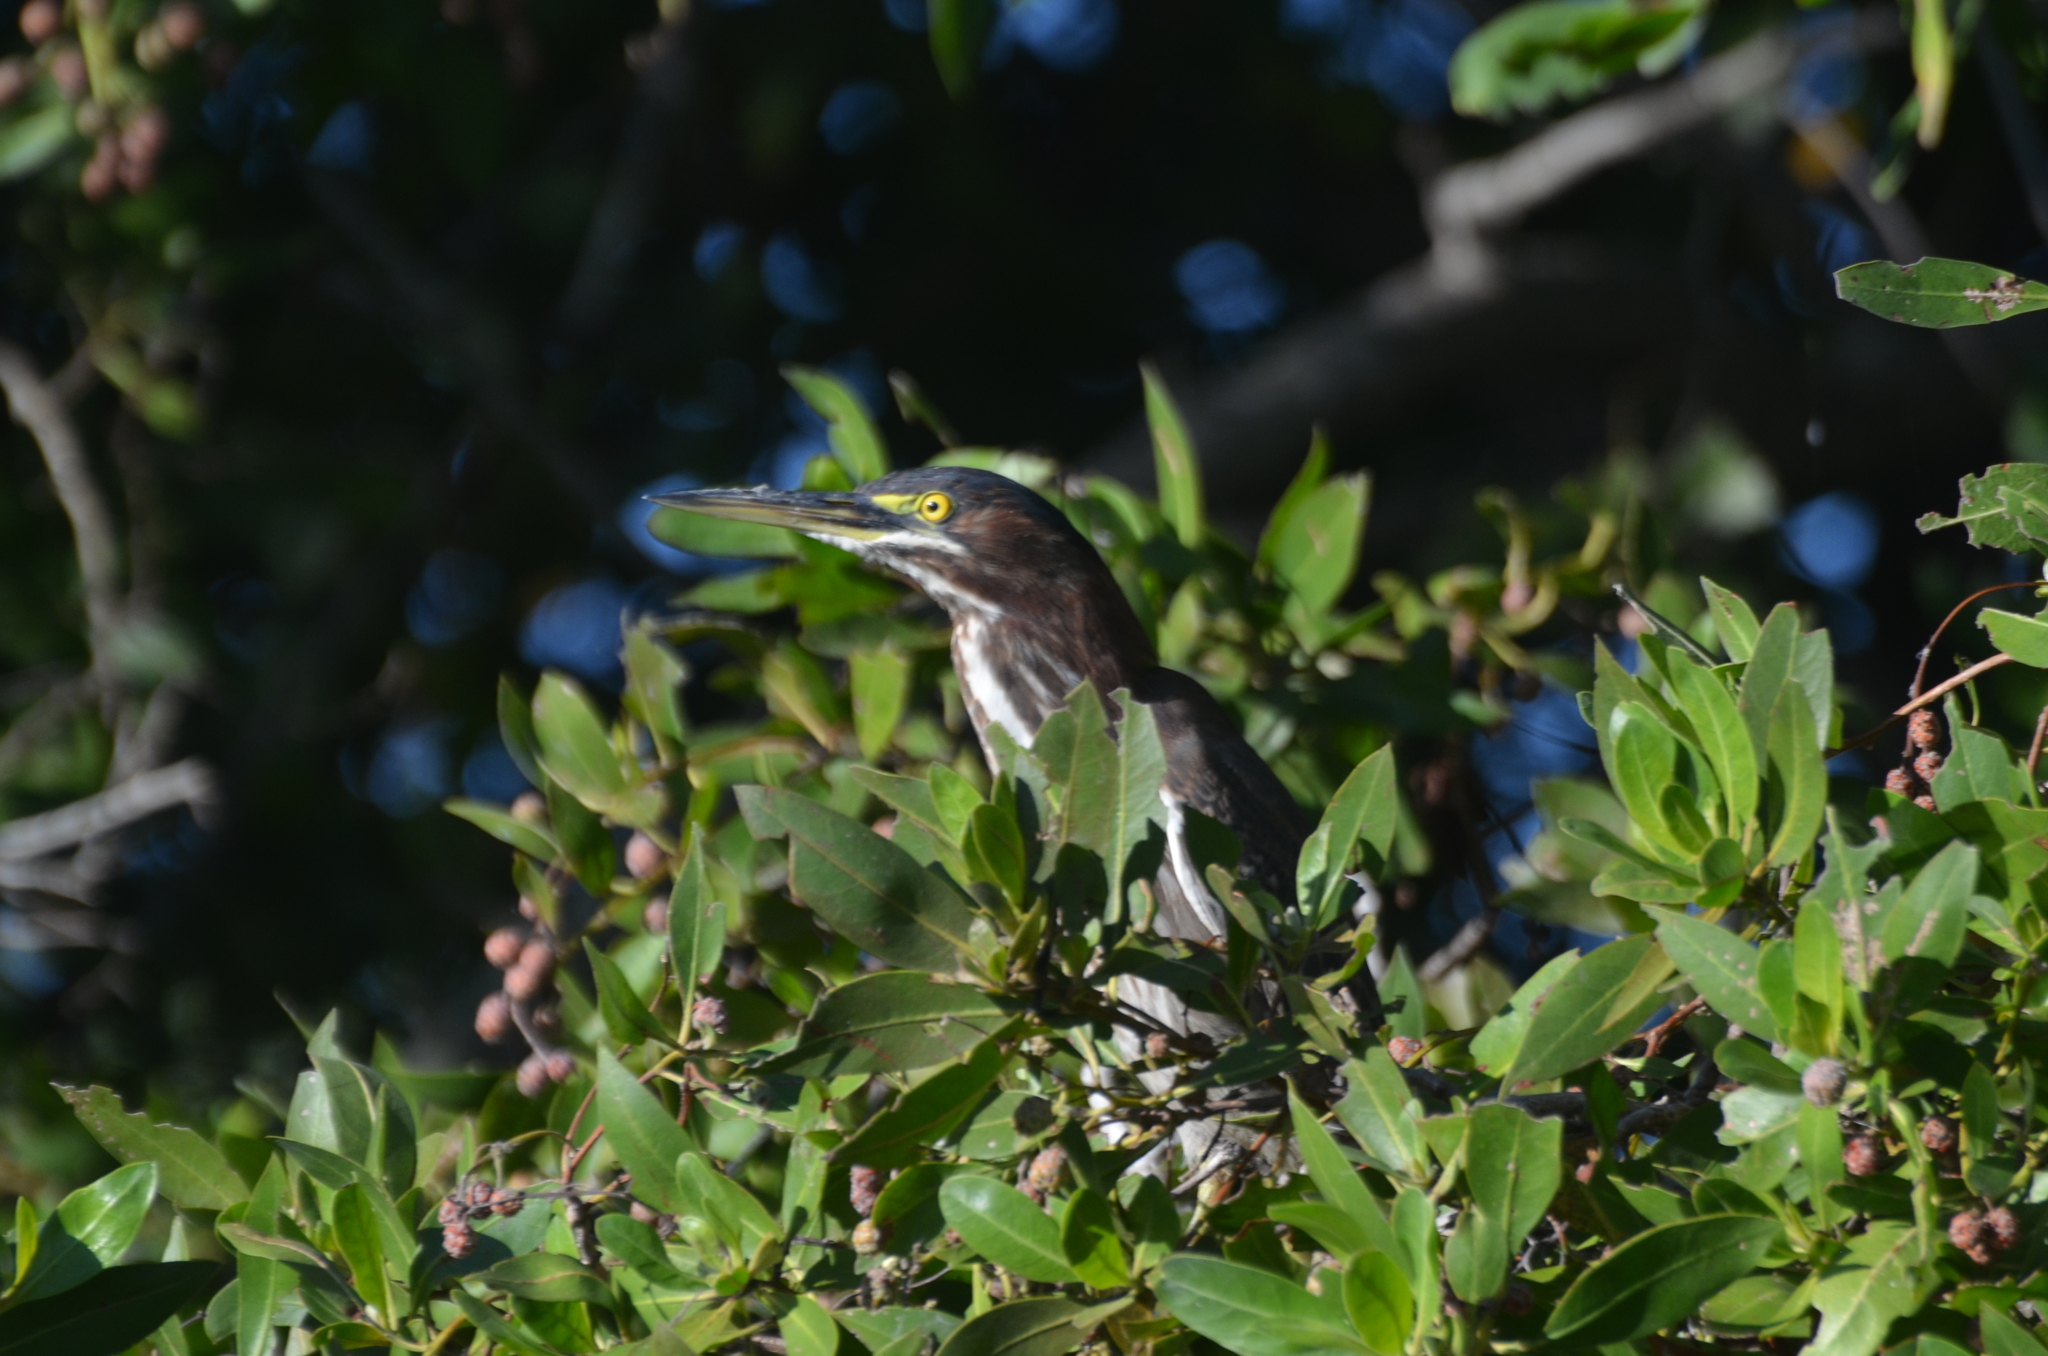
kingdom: Animalia
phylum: Chordata
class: Aves
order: Pelecaniformes
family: Ardeidae
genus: Butorides
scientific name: Butorides virescens
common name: Green heron
